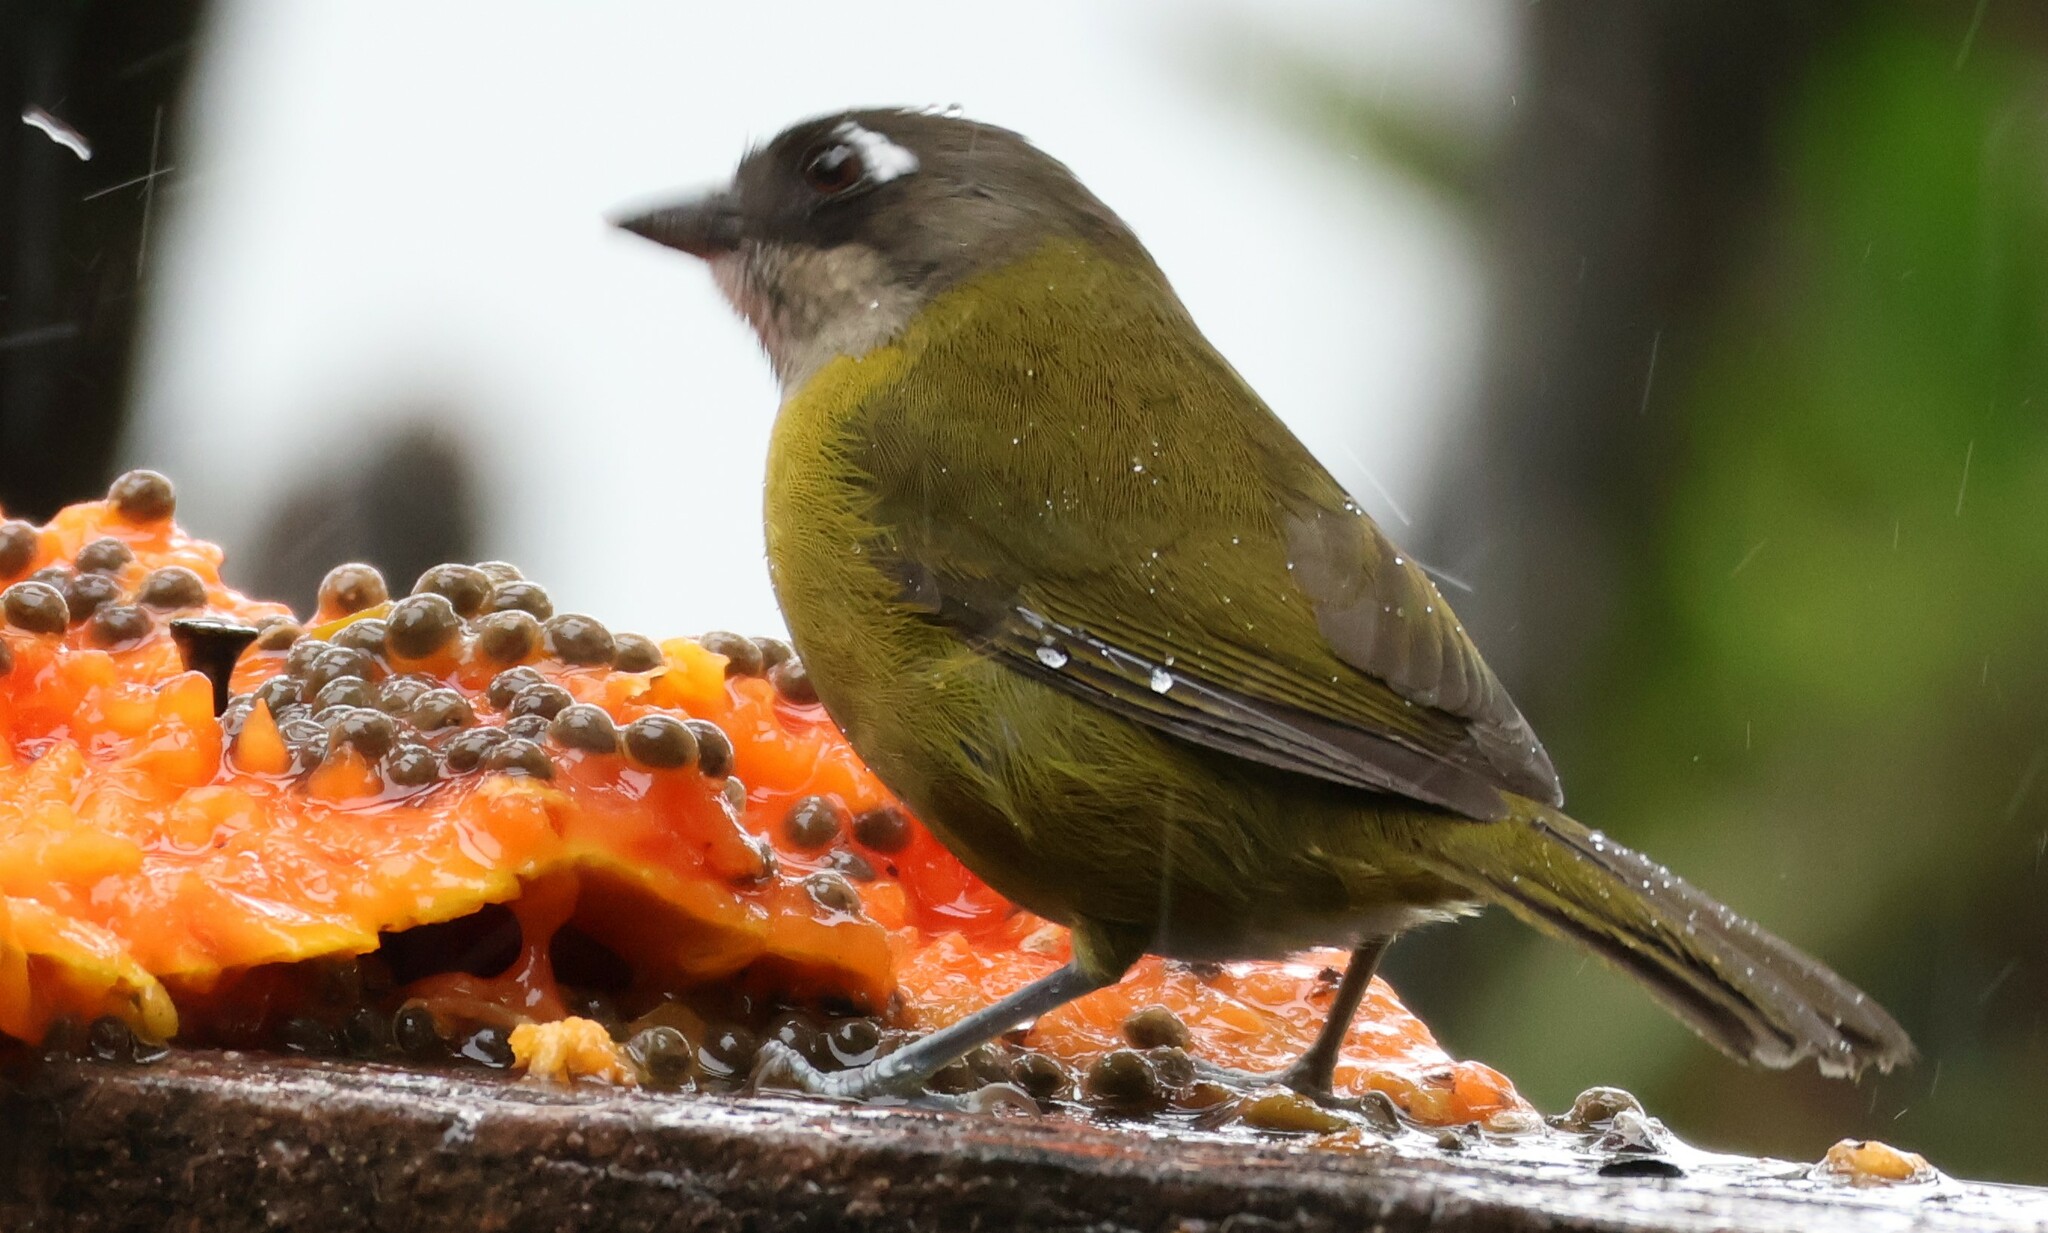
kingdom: Animalia
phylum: Chordata
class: Aves
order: Passeriformes
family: Passerellidae
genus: Chlorospingus
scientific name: Chlorospingus flavopectus
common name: Common chlorospingus
